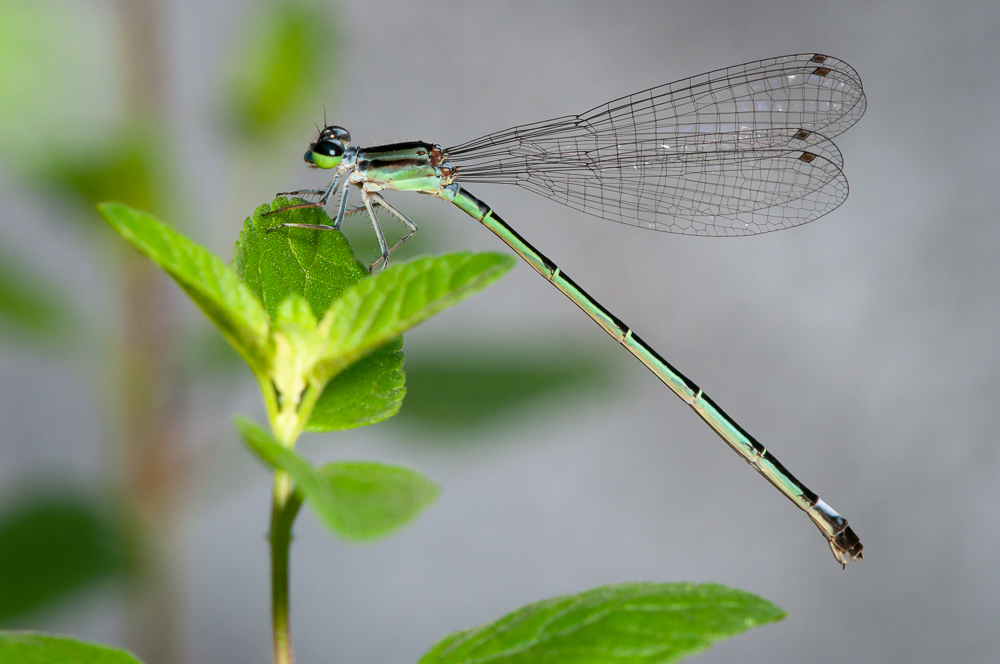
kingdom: Animalia
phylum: Arthropoda
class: Insecta
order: Odonata
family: Coenagrionidae
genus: Anisagrion
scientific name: Anisagrion allopterum
